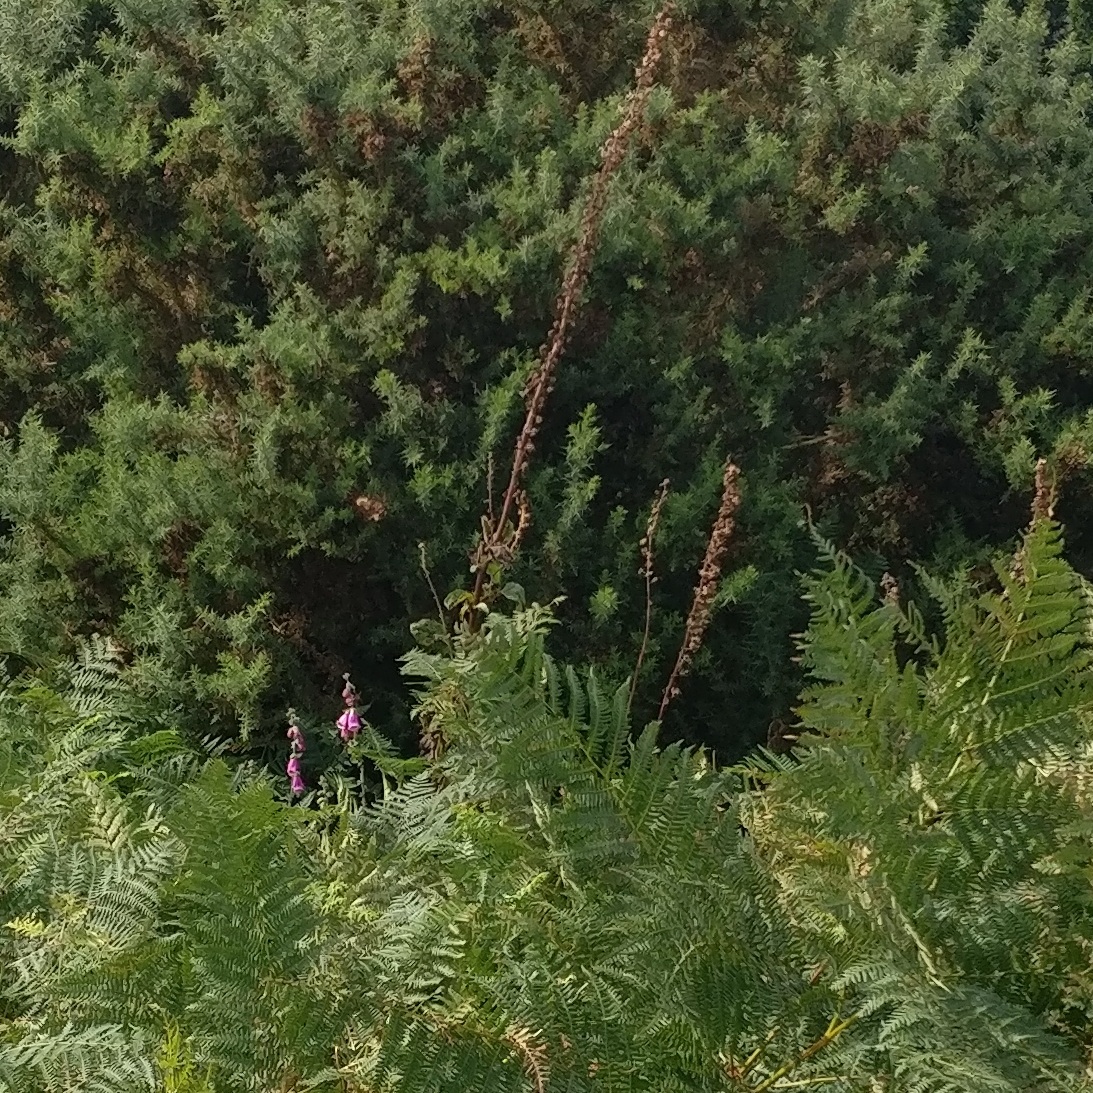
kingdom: Plantae
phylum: Tracheophyta
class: Magnoliopsida
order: Lamiales
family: Plantaginaceae
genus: Digitalis
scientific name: Digitalis purpurea
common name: Foxglove
